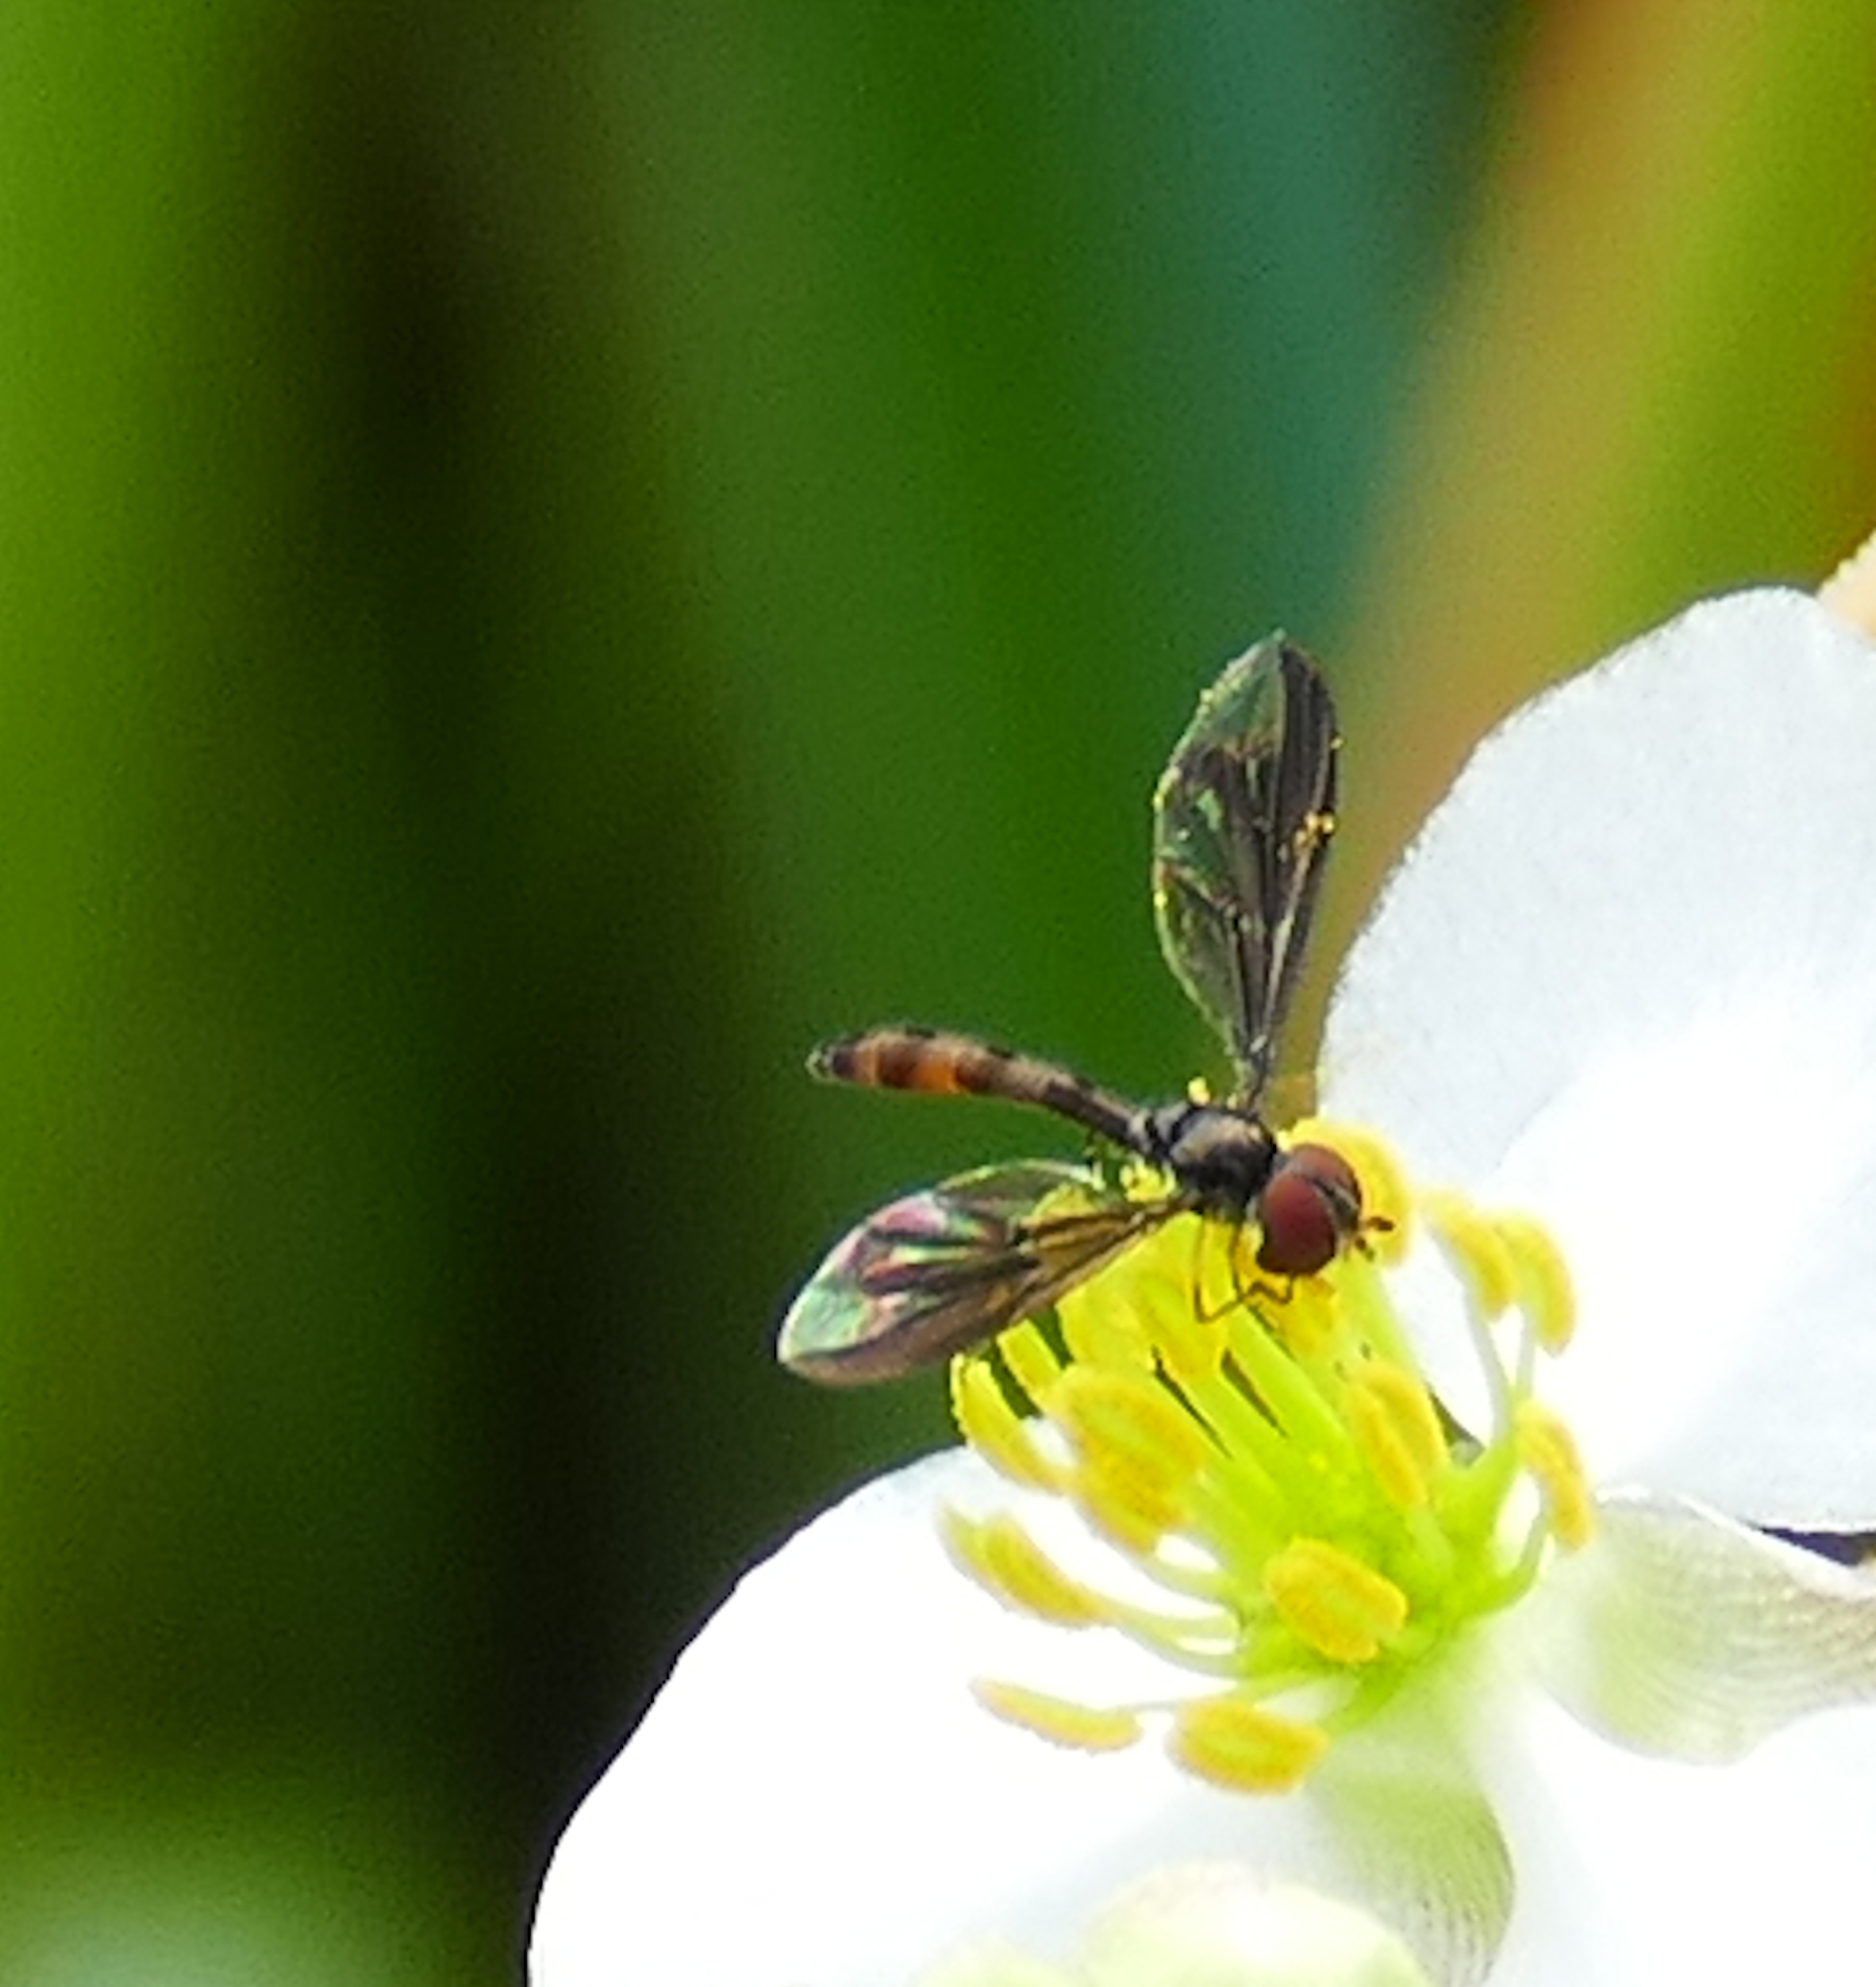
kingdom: Animalia
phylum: Arthropoda
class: Insecta
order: Diptera
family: Syrphidae
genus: Ocyptamus
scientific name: Ocyptamus fuscipennis
